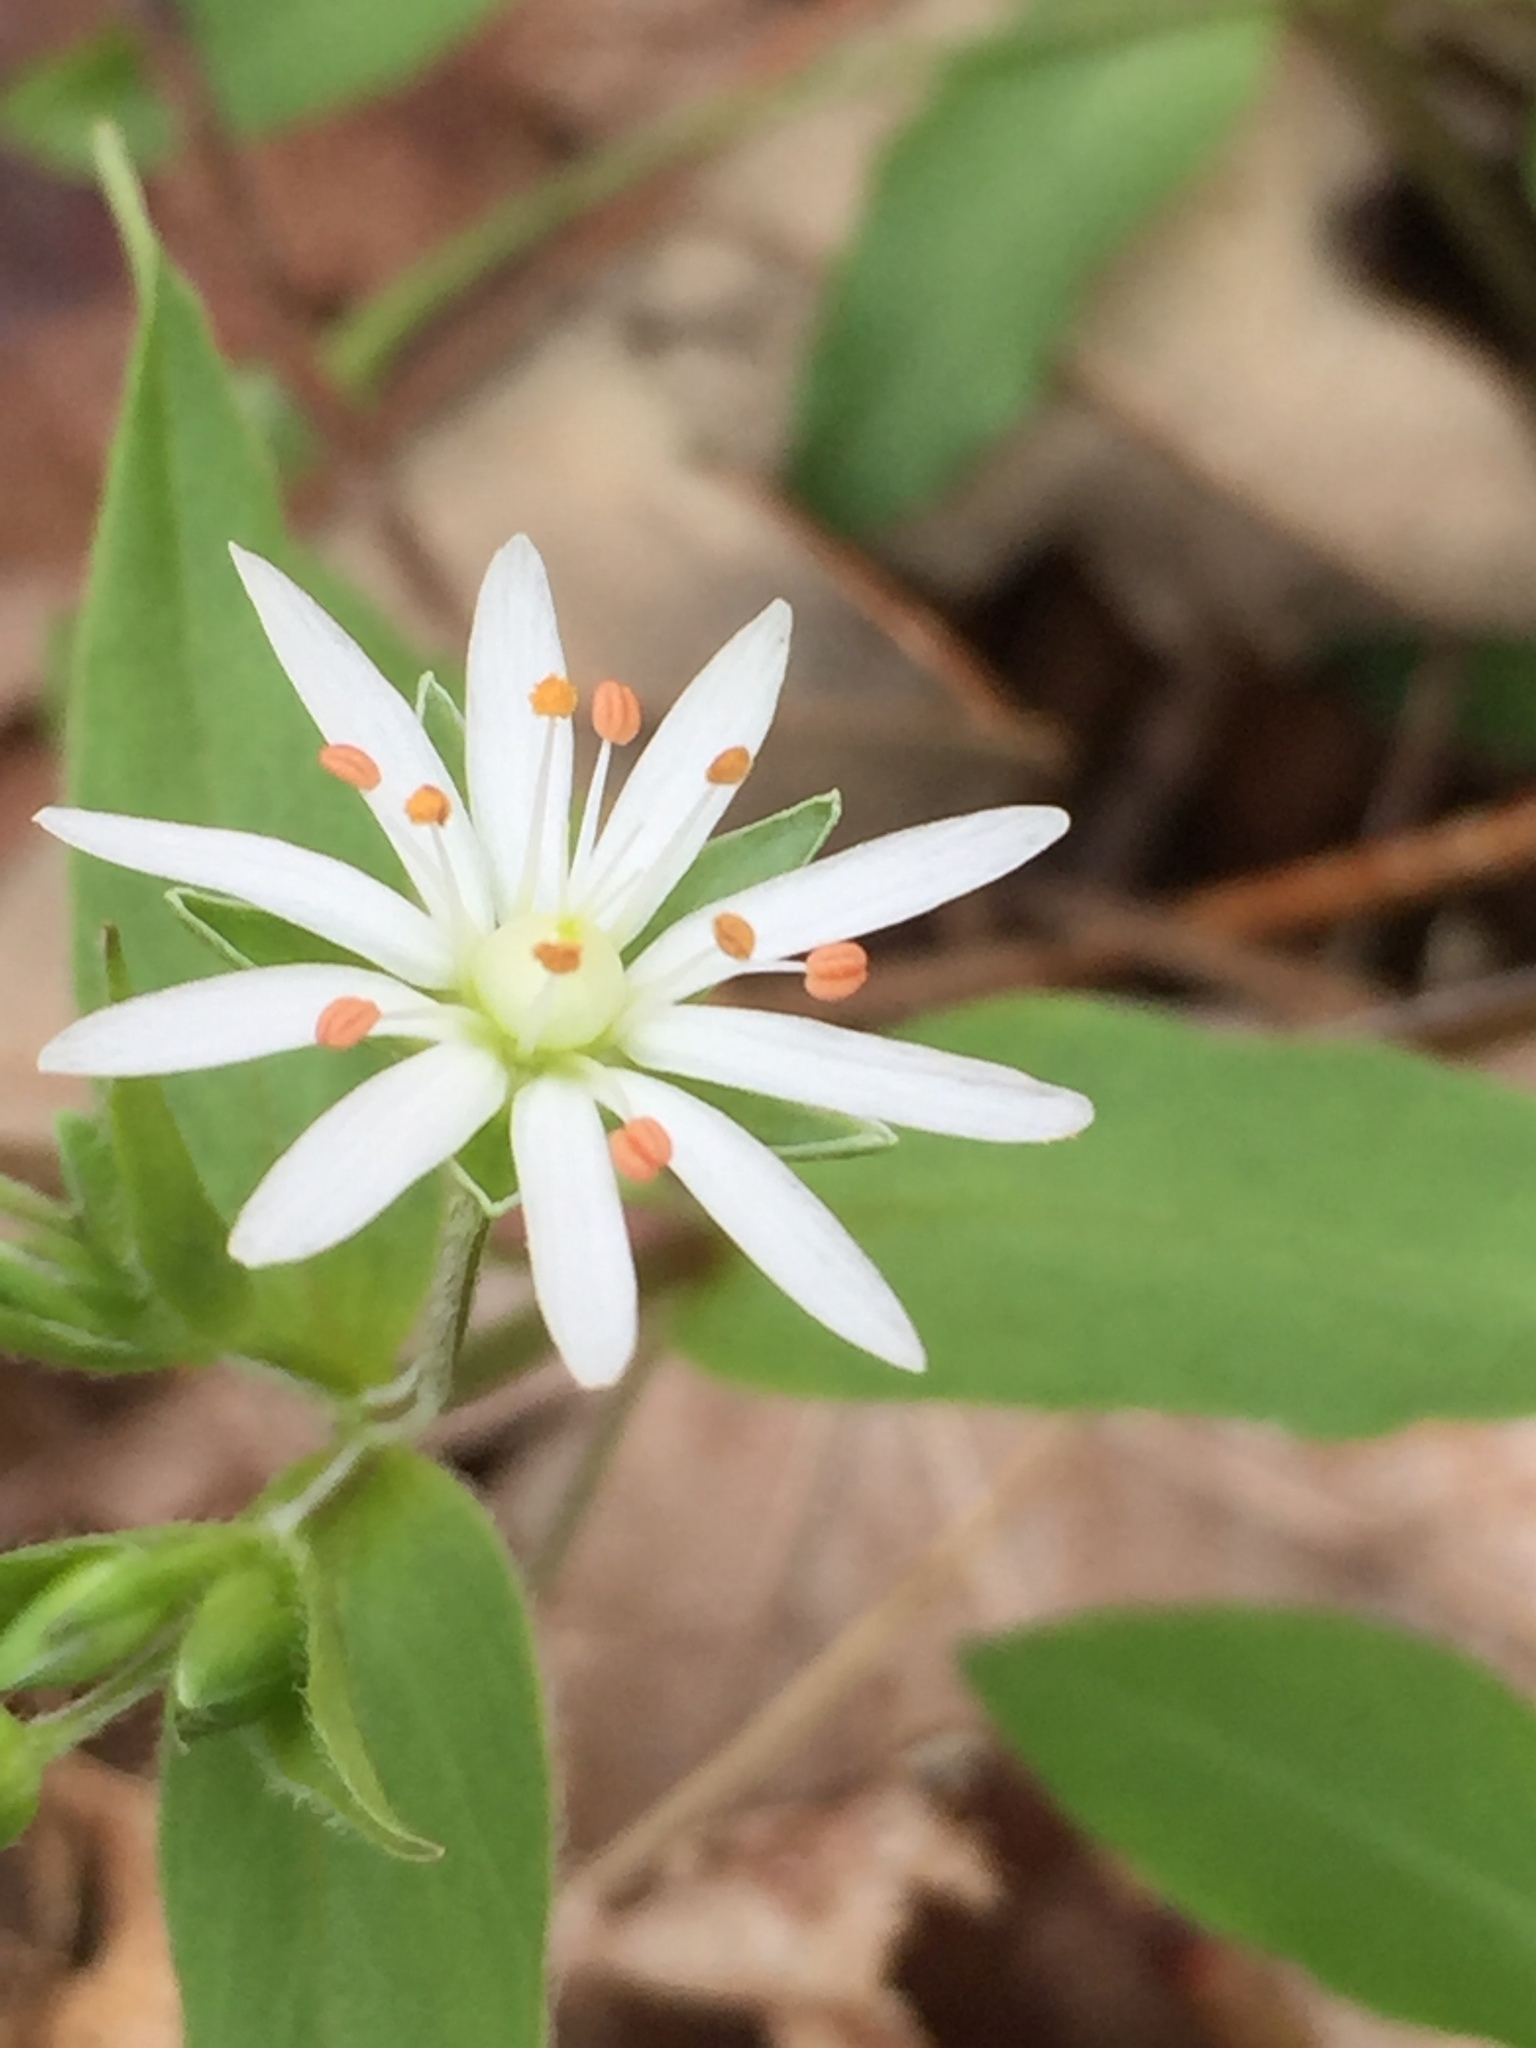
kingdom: Plantae
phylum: Tracheophyta
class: Magnoliopsida
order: Caryophyllales
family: Caryophyllaceae
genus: Stellaria
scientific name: Stellaria pubera
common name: Star chickweed
